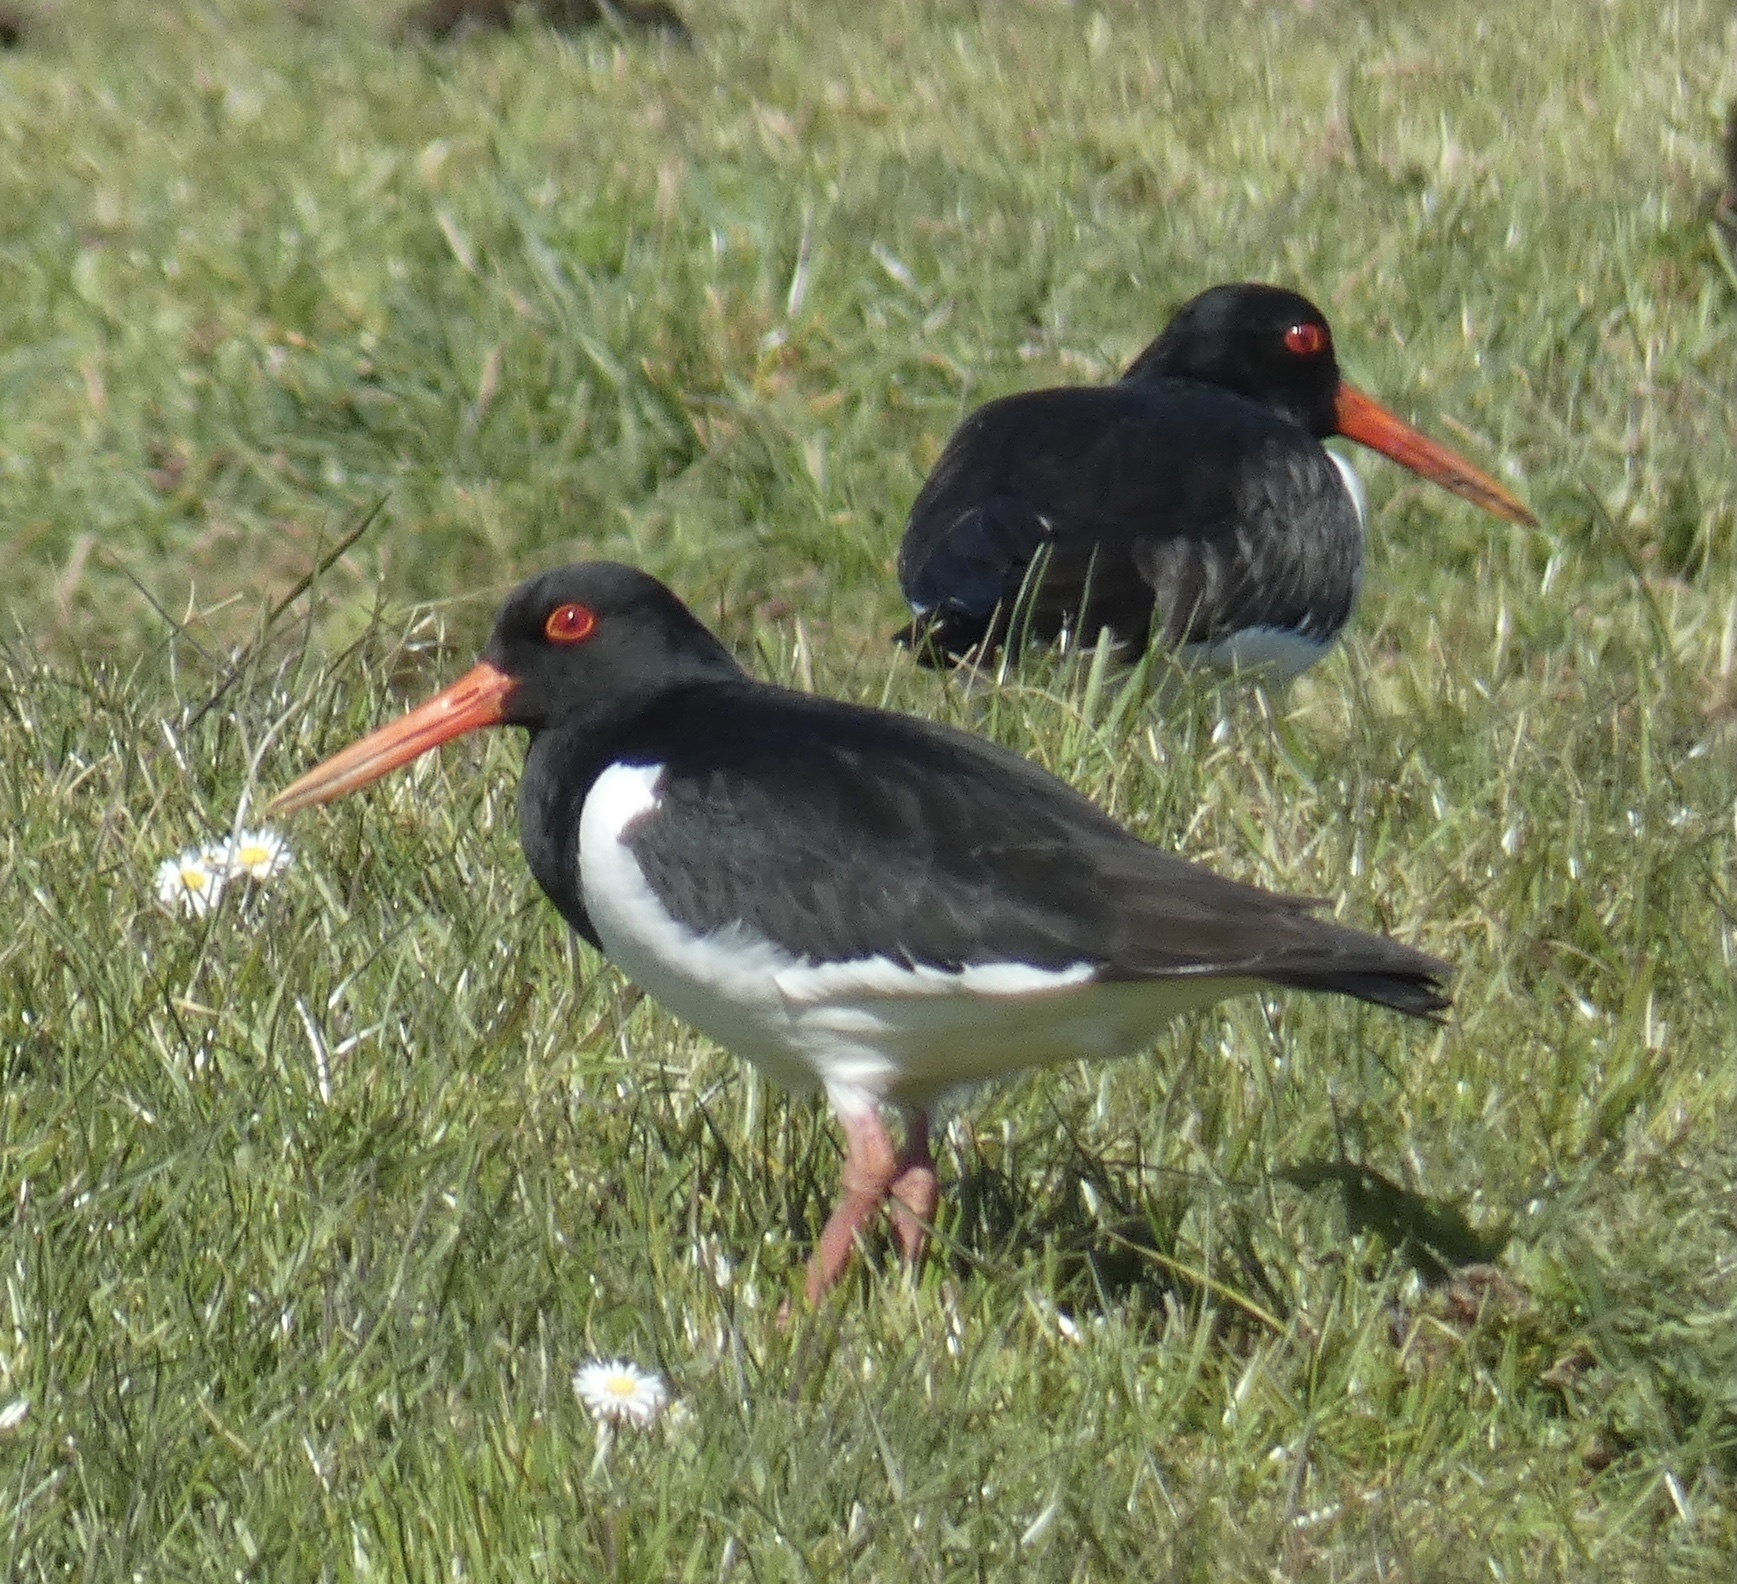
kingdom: Animalia
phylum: Chordata
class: Aves
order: Charadriiformes
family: Haematopodidae
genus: Haematopus
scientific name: Haematopus ostralegus
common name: Eurasian oystercatcher
